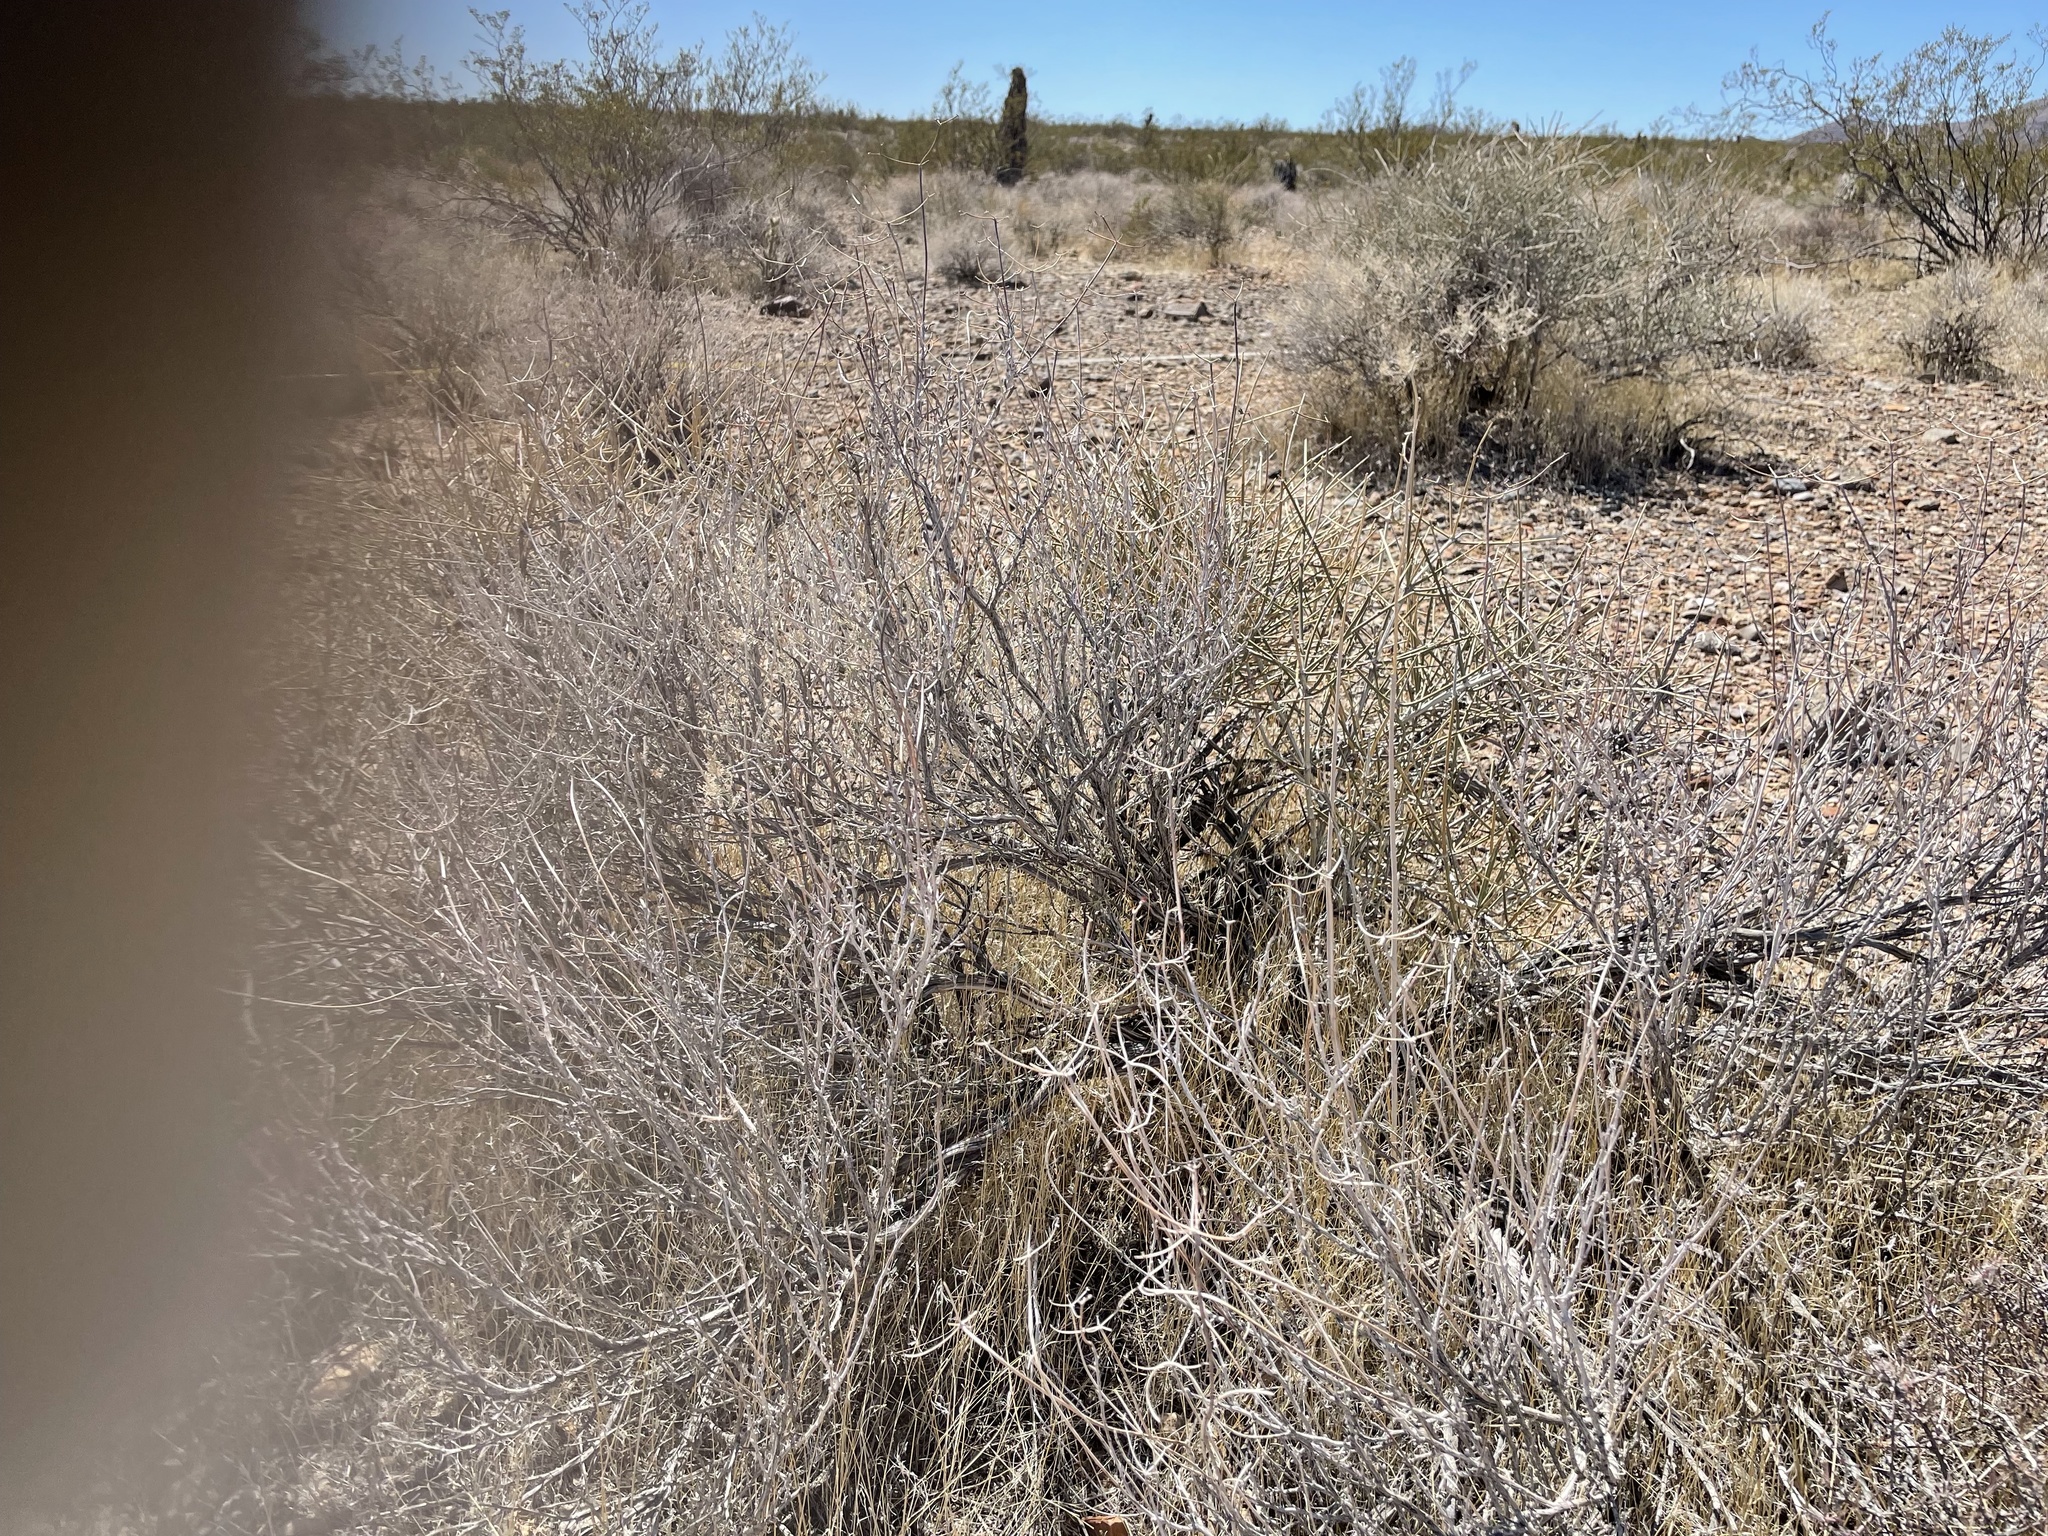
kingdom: Plantae
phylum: Tracheophyta
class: Magnoliopsida
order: Caryophyllales
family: Polygonaceae
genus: Eriogonum
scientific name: Eriogonum fasciculatum
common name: California wild buckwheat
